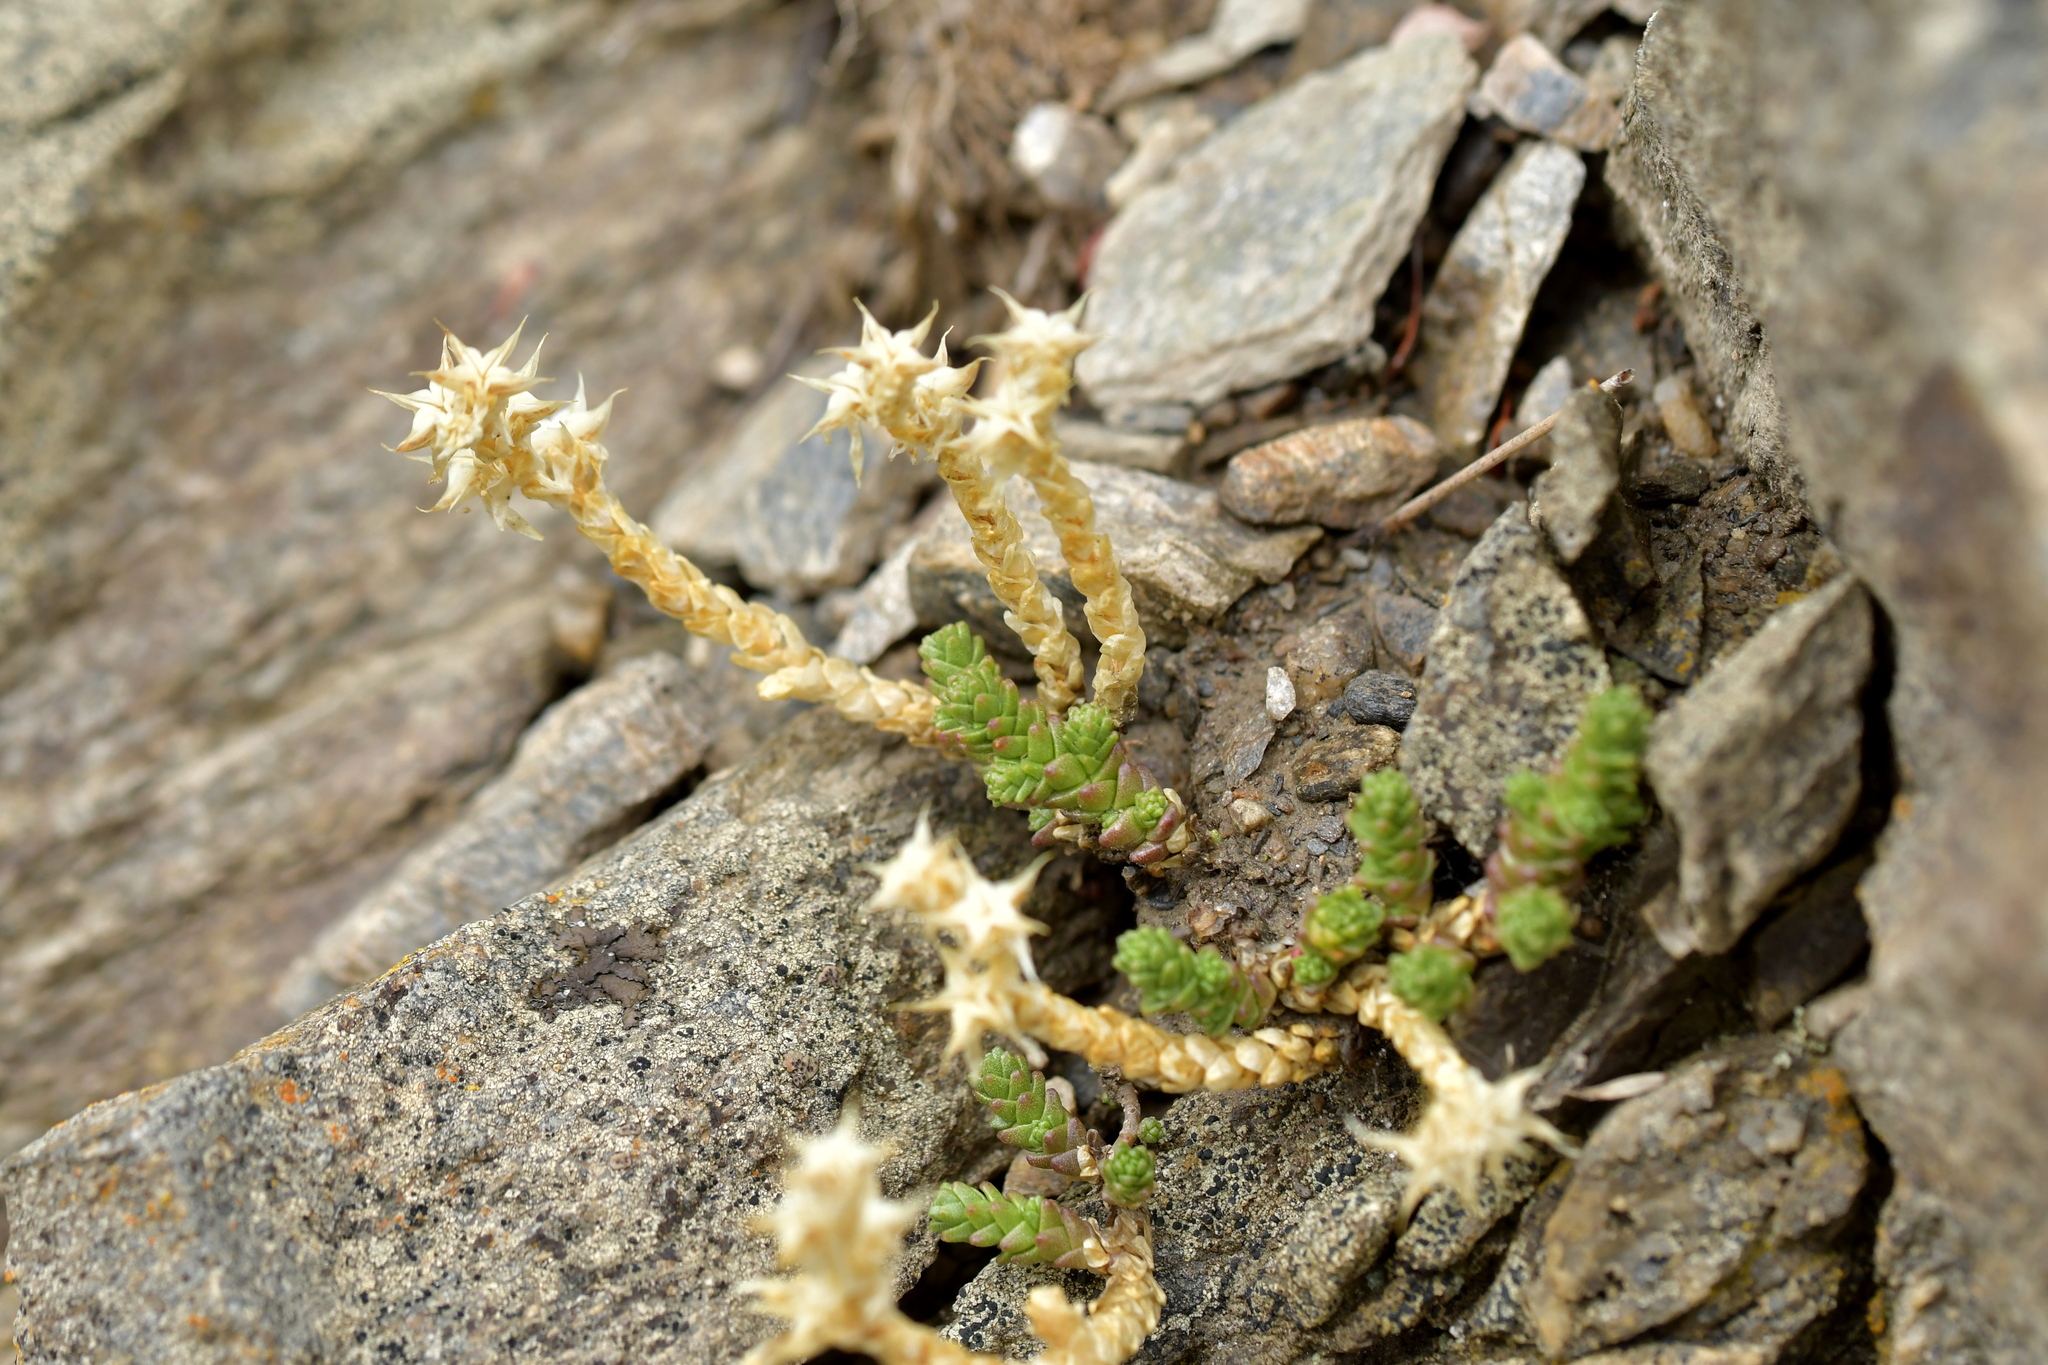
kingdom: Plantae
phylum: Tracheophyta
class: Magnoliopsida
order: Saxifragales
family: Crassulaceae
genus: Sedum
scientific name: Sedum acre
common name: Biting stonecrop
